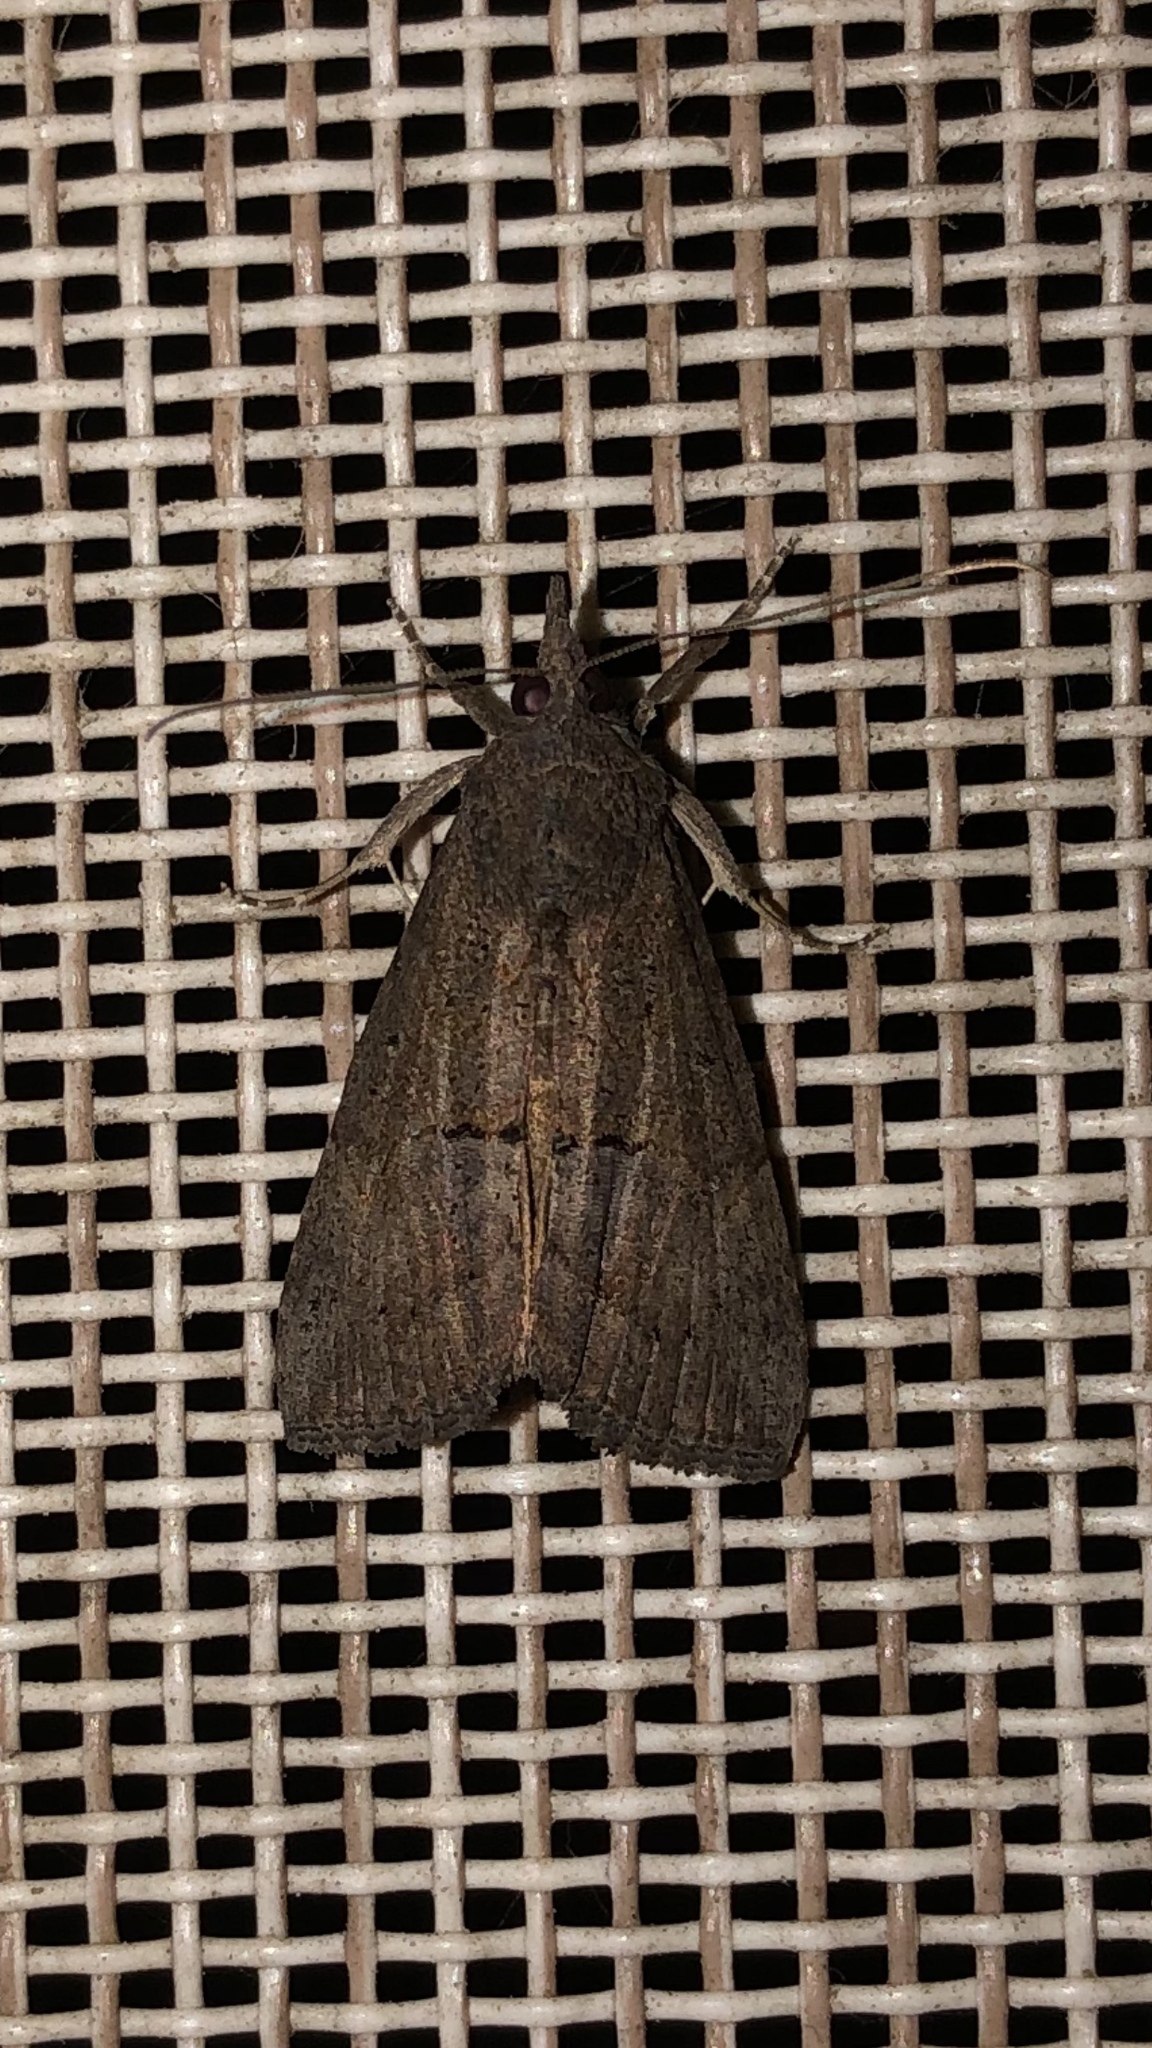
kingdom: Animalia
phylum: Arthropoda
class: Insecta
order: Lepidoptera
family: Erebidae
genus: Hypena
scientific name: Hypena scabra
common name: Green cloverworm
